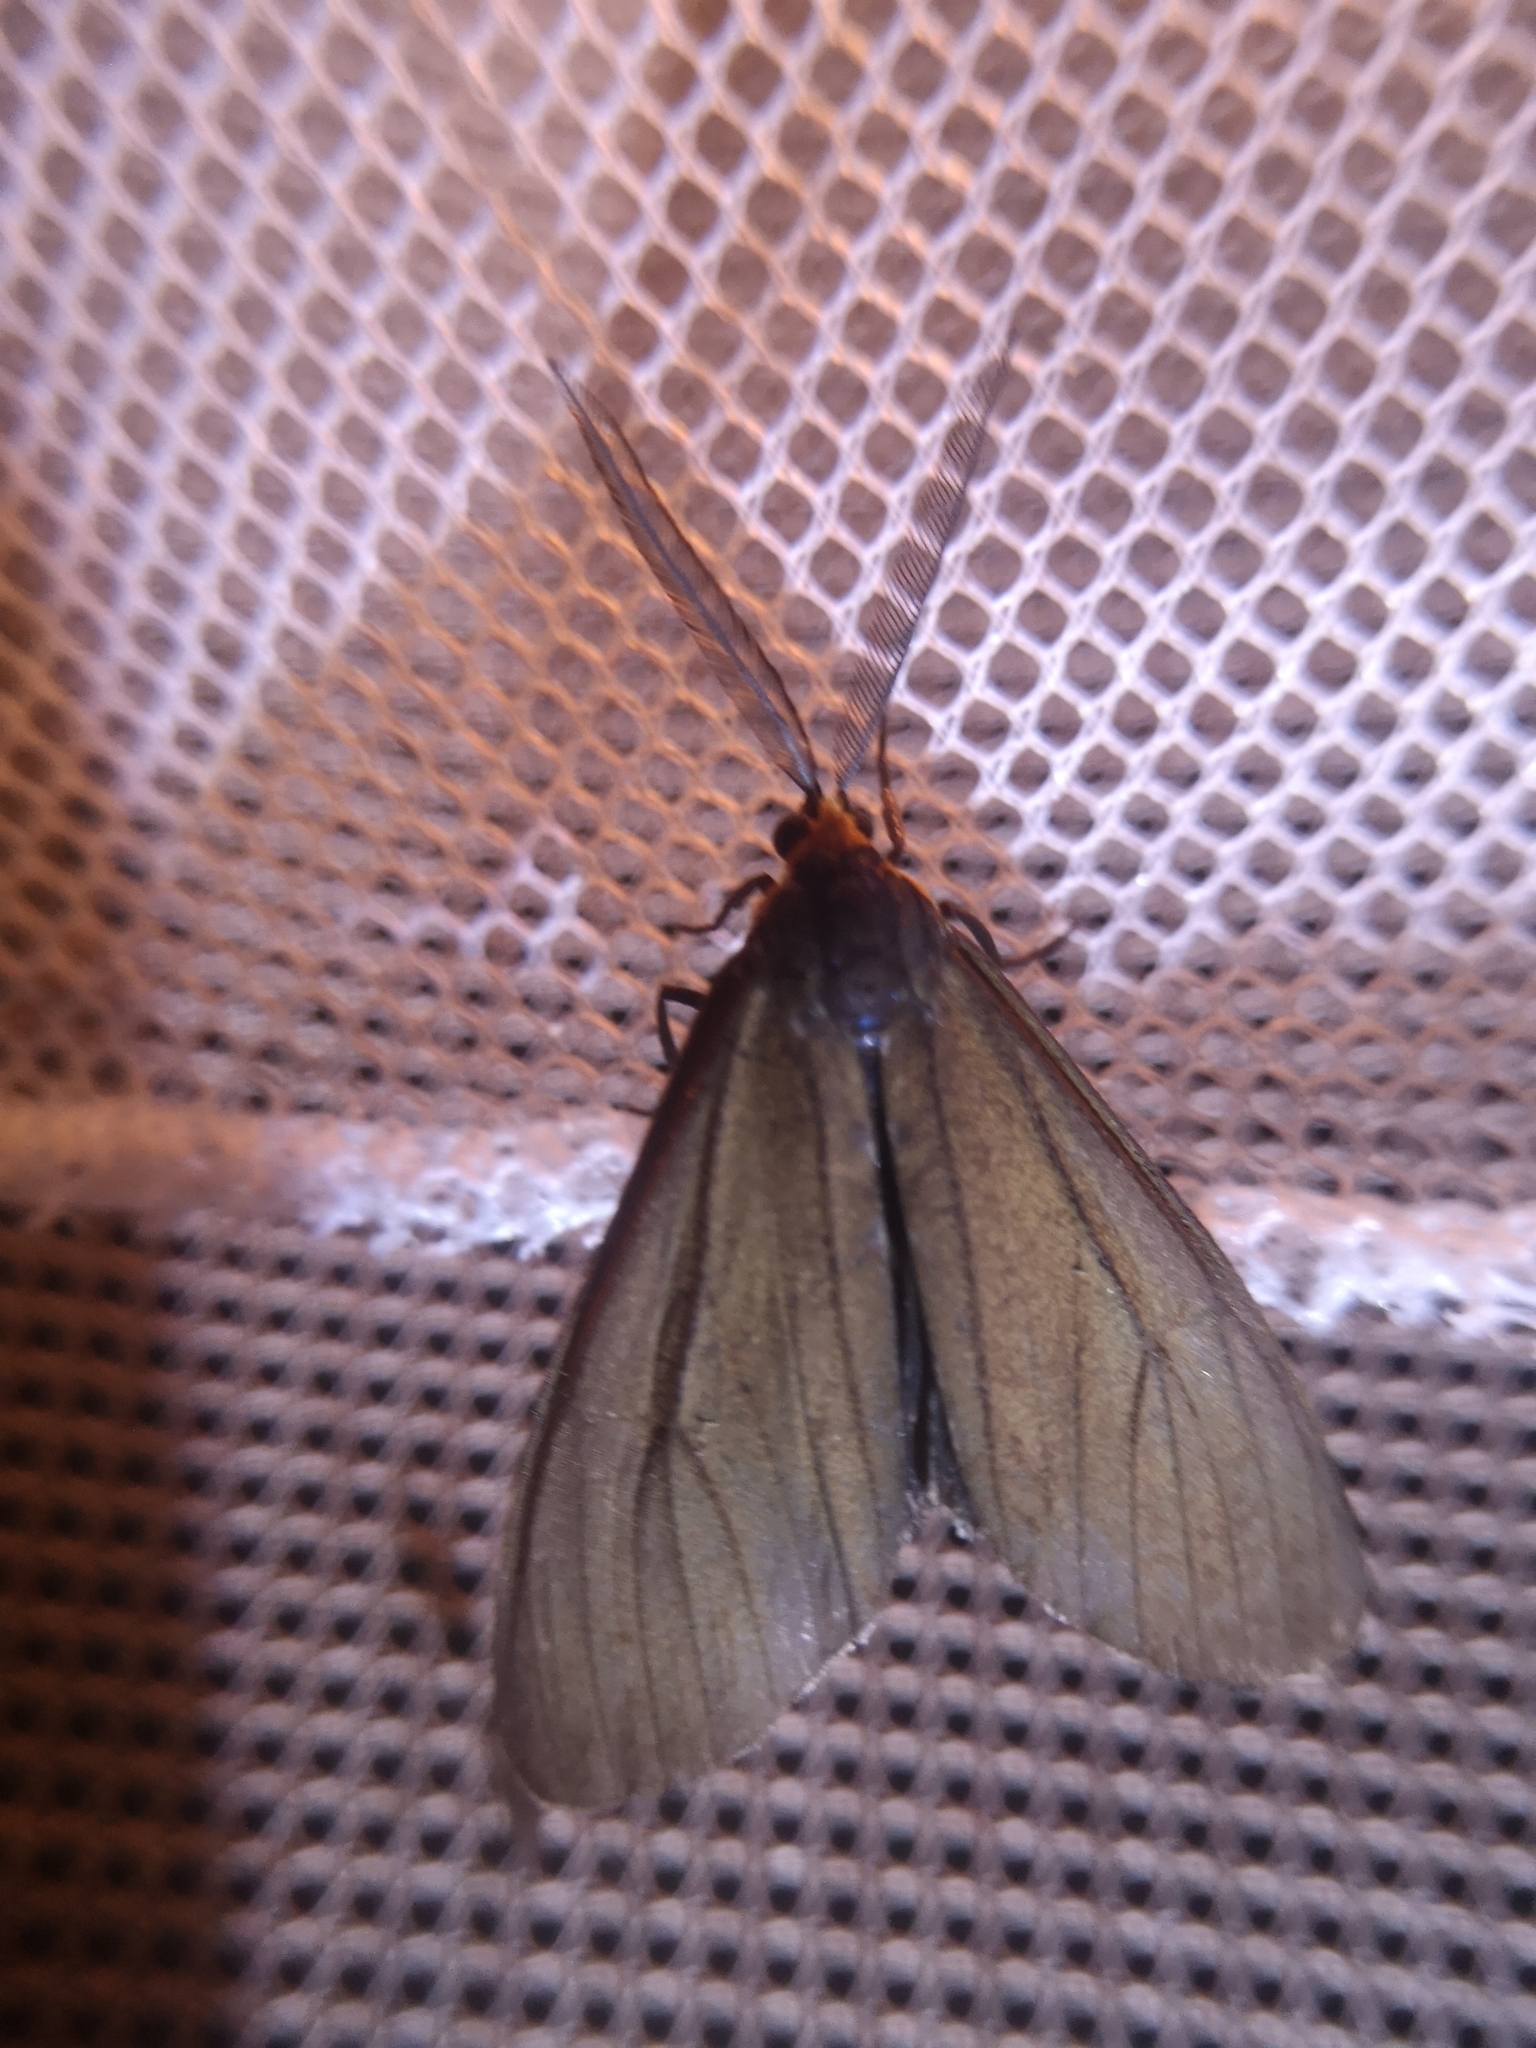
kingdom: Animalia
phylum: Arthropoda
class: Insecta
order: Lepidoptera
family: Erebidae
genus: Ctenucha
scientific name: Ctenucha virginica
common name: Virginia ctenucha moth
